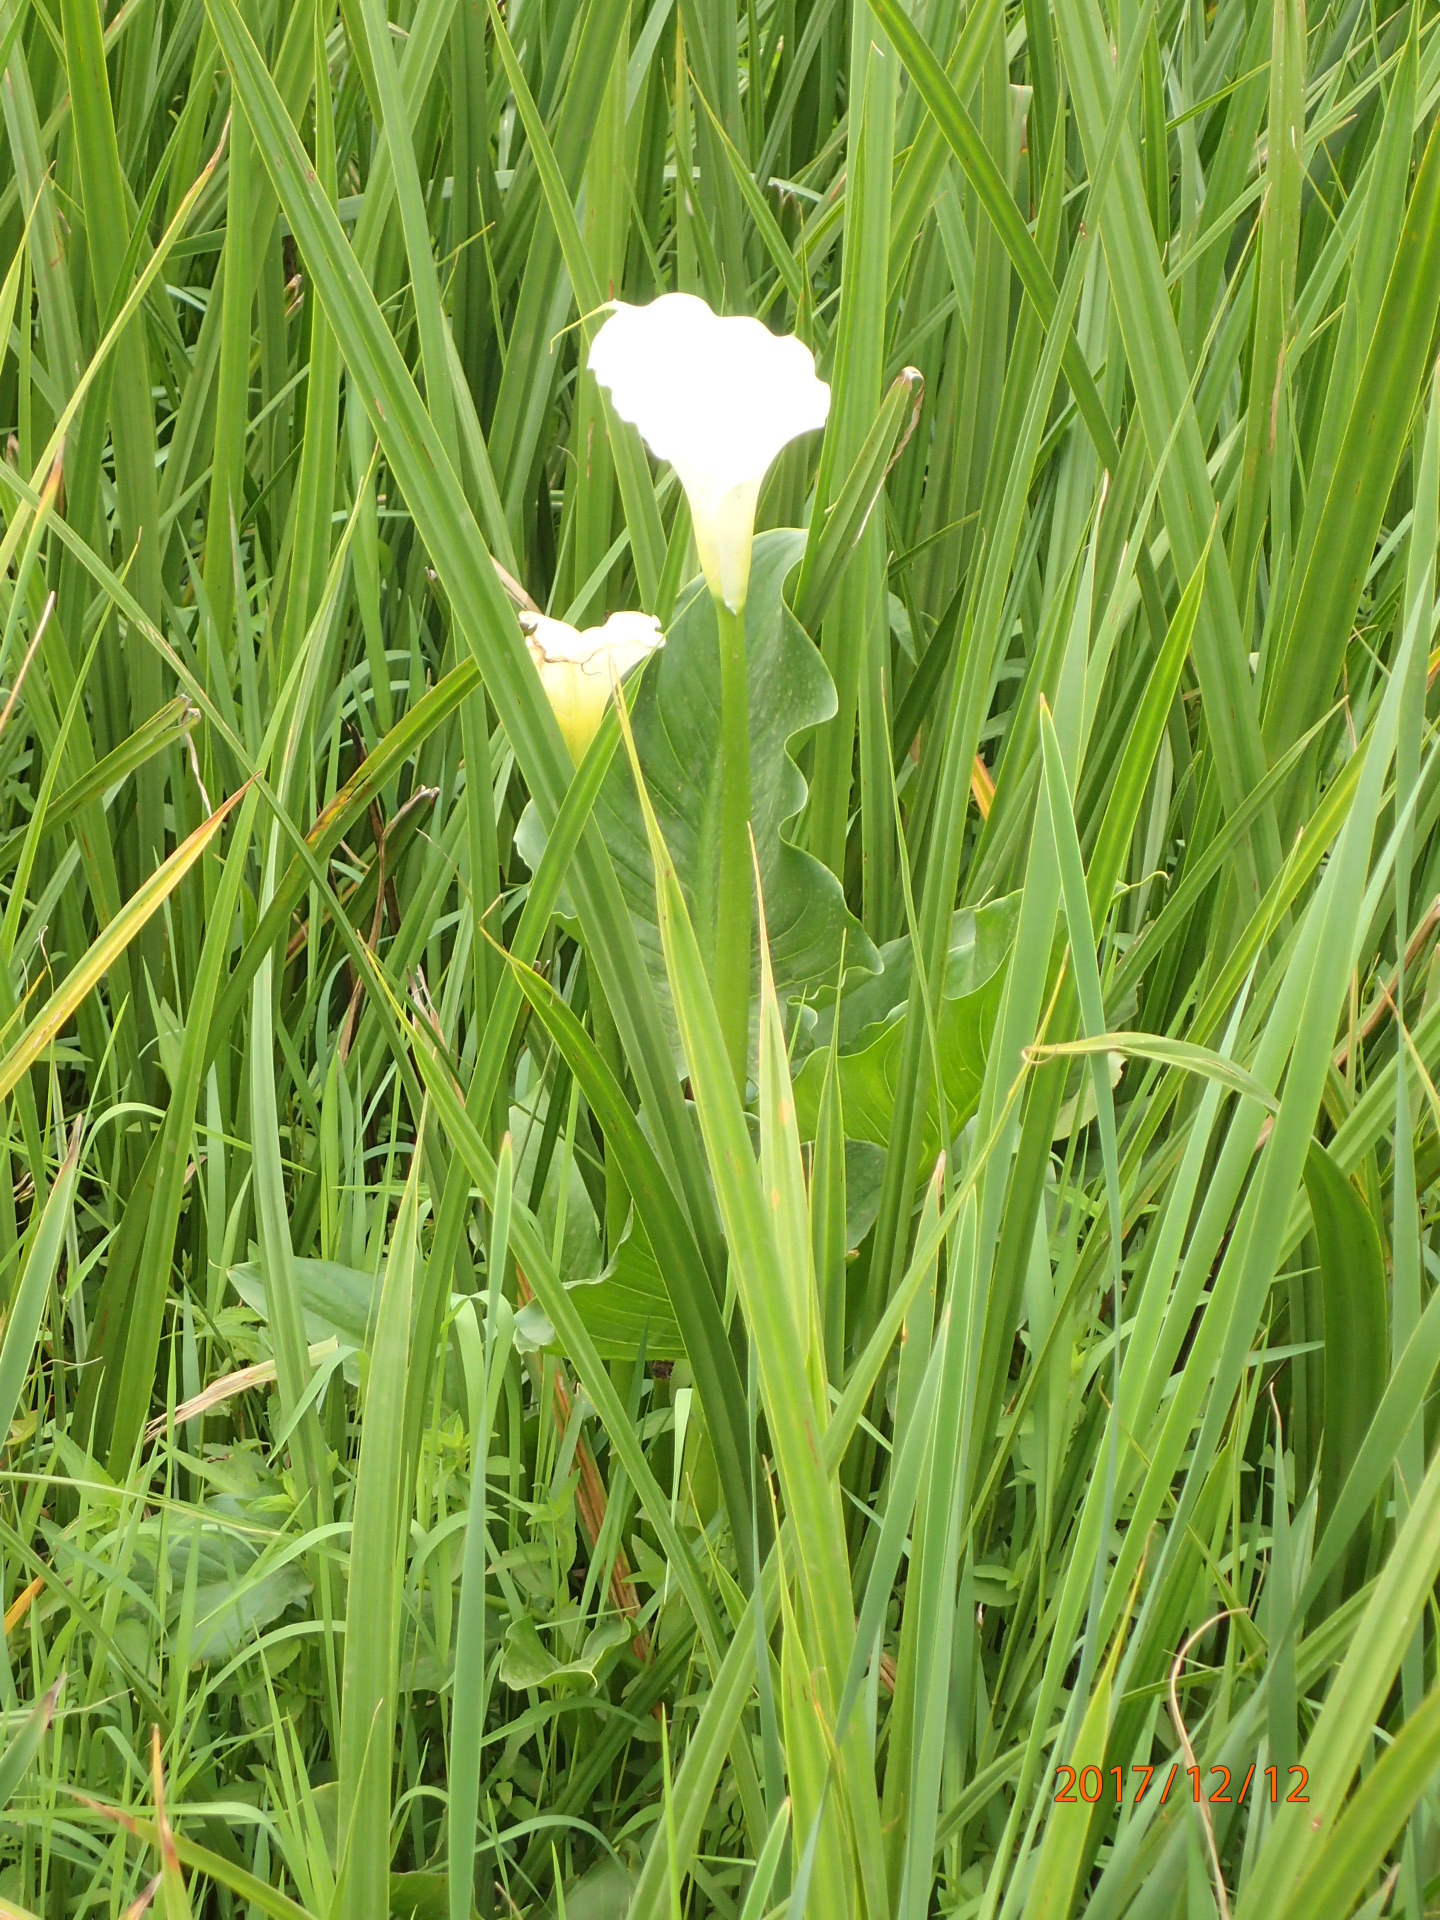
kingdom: Plantae
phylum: Tracheophyta
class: Liliopsida
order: Alismatales
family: Araceae
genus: Zantedeschia
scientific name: Zantedeschia aethiopica
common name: Altar-lily
